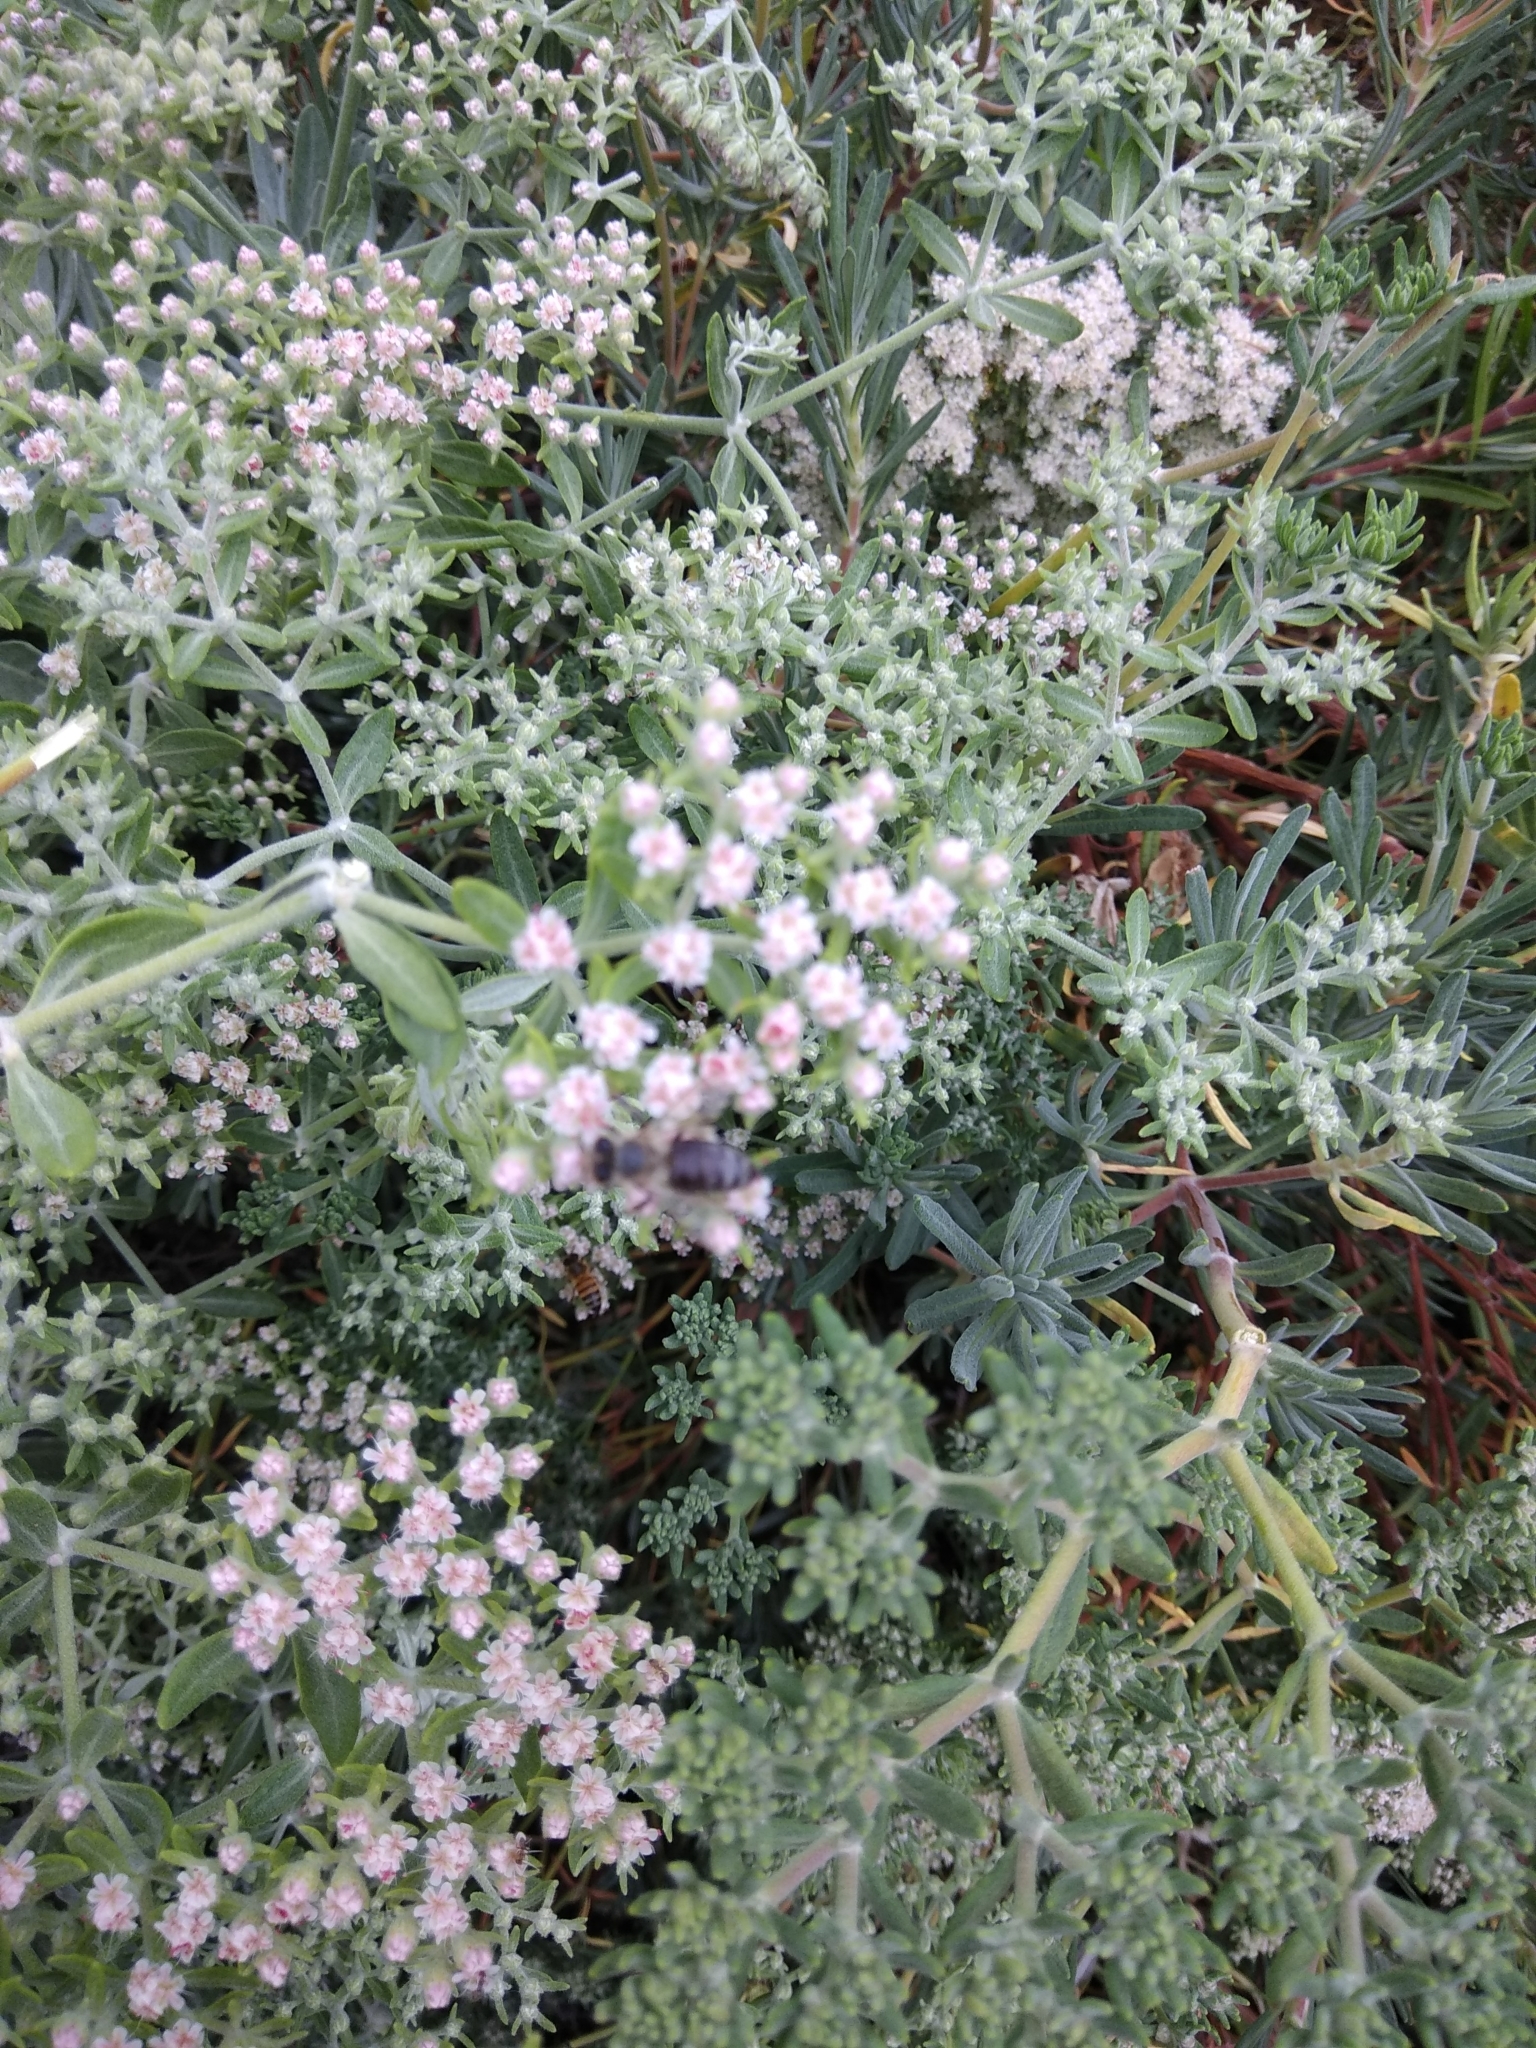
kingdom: Animalia
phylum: Arthropoda
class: Insecta
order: Hymenoptera
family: Apidae
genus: Apis
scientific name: Apis mellifera
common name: Honey bee
